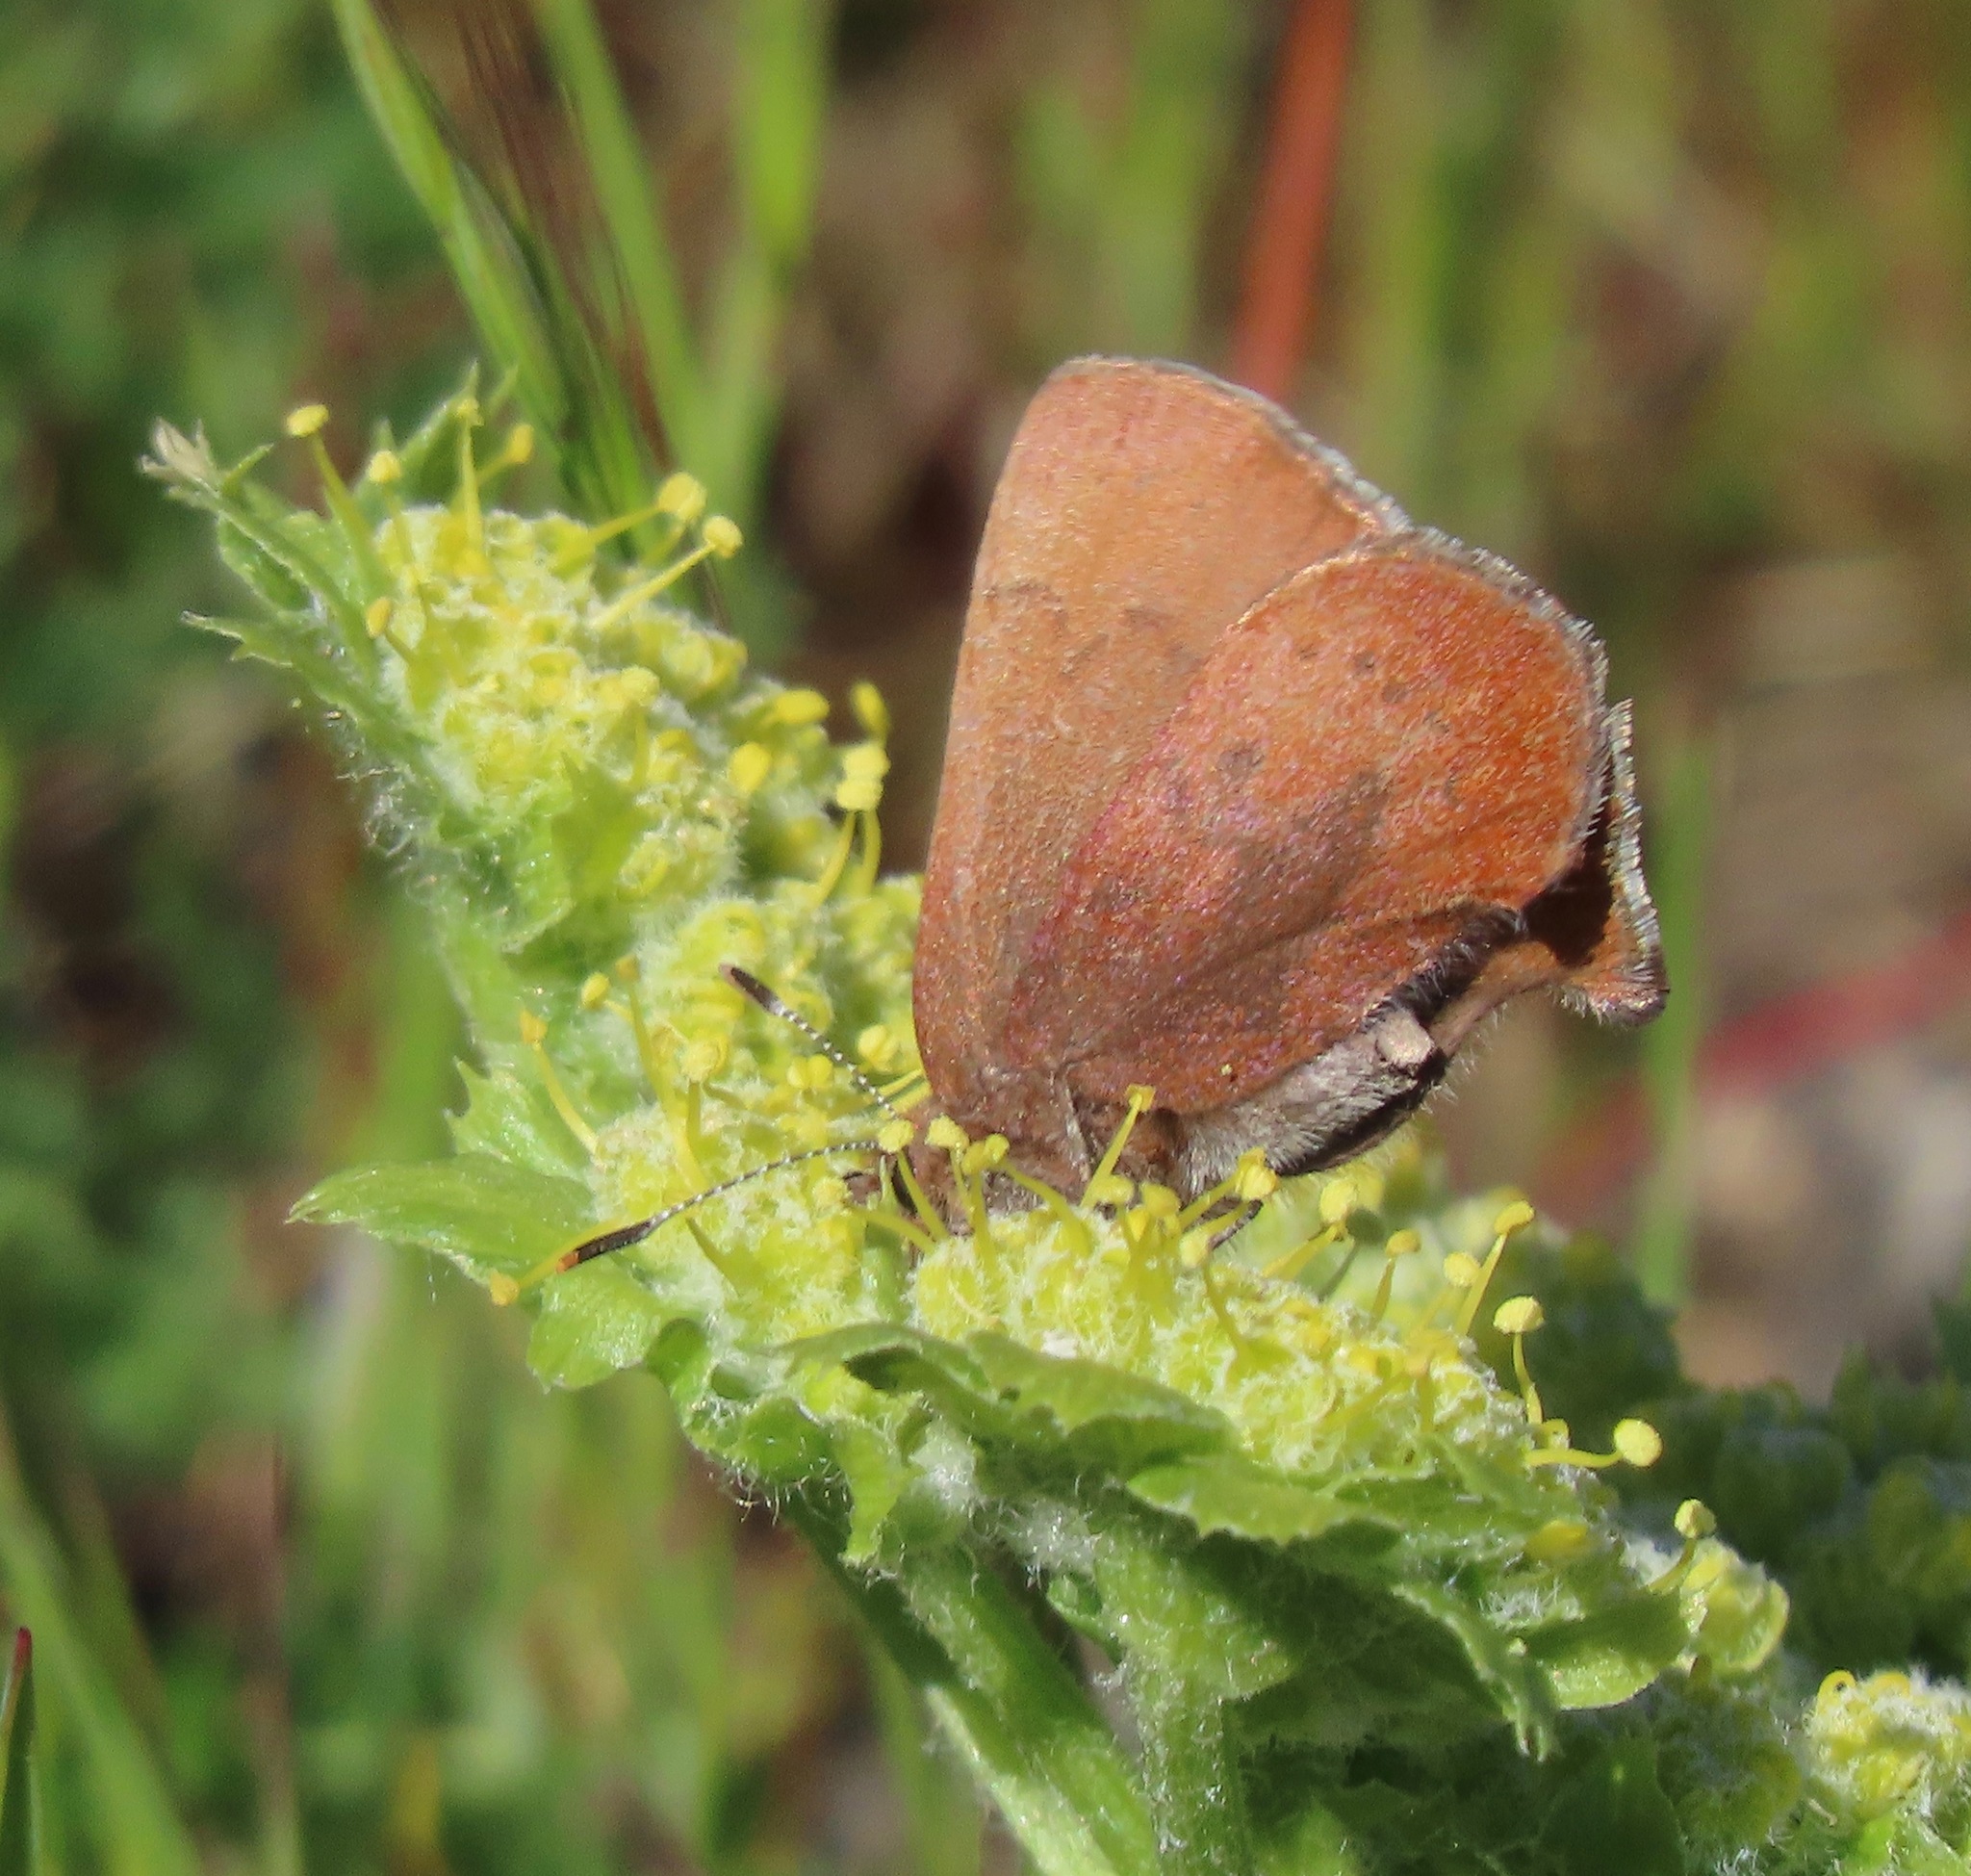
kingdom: Animalia
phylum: Arthropoda
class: Insecta
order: Lepidoptera
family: Lycaenidae
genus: Incisalia
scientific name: Incisalia irioides
